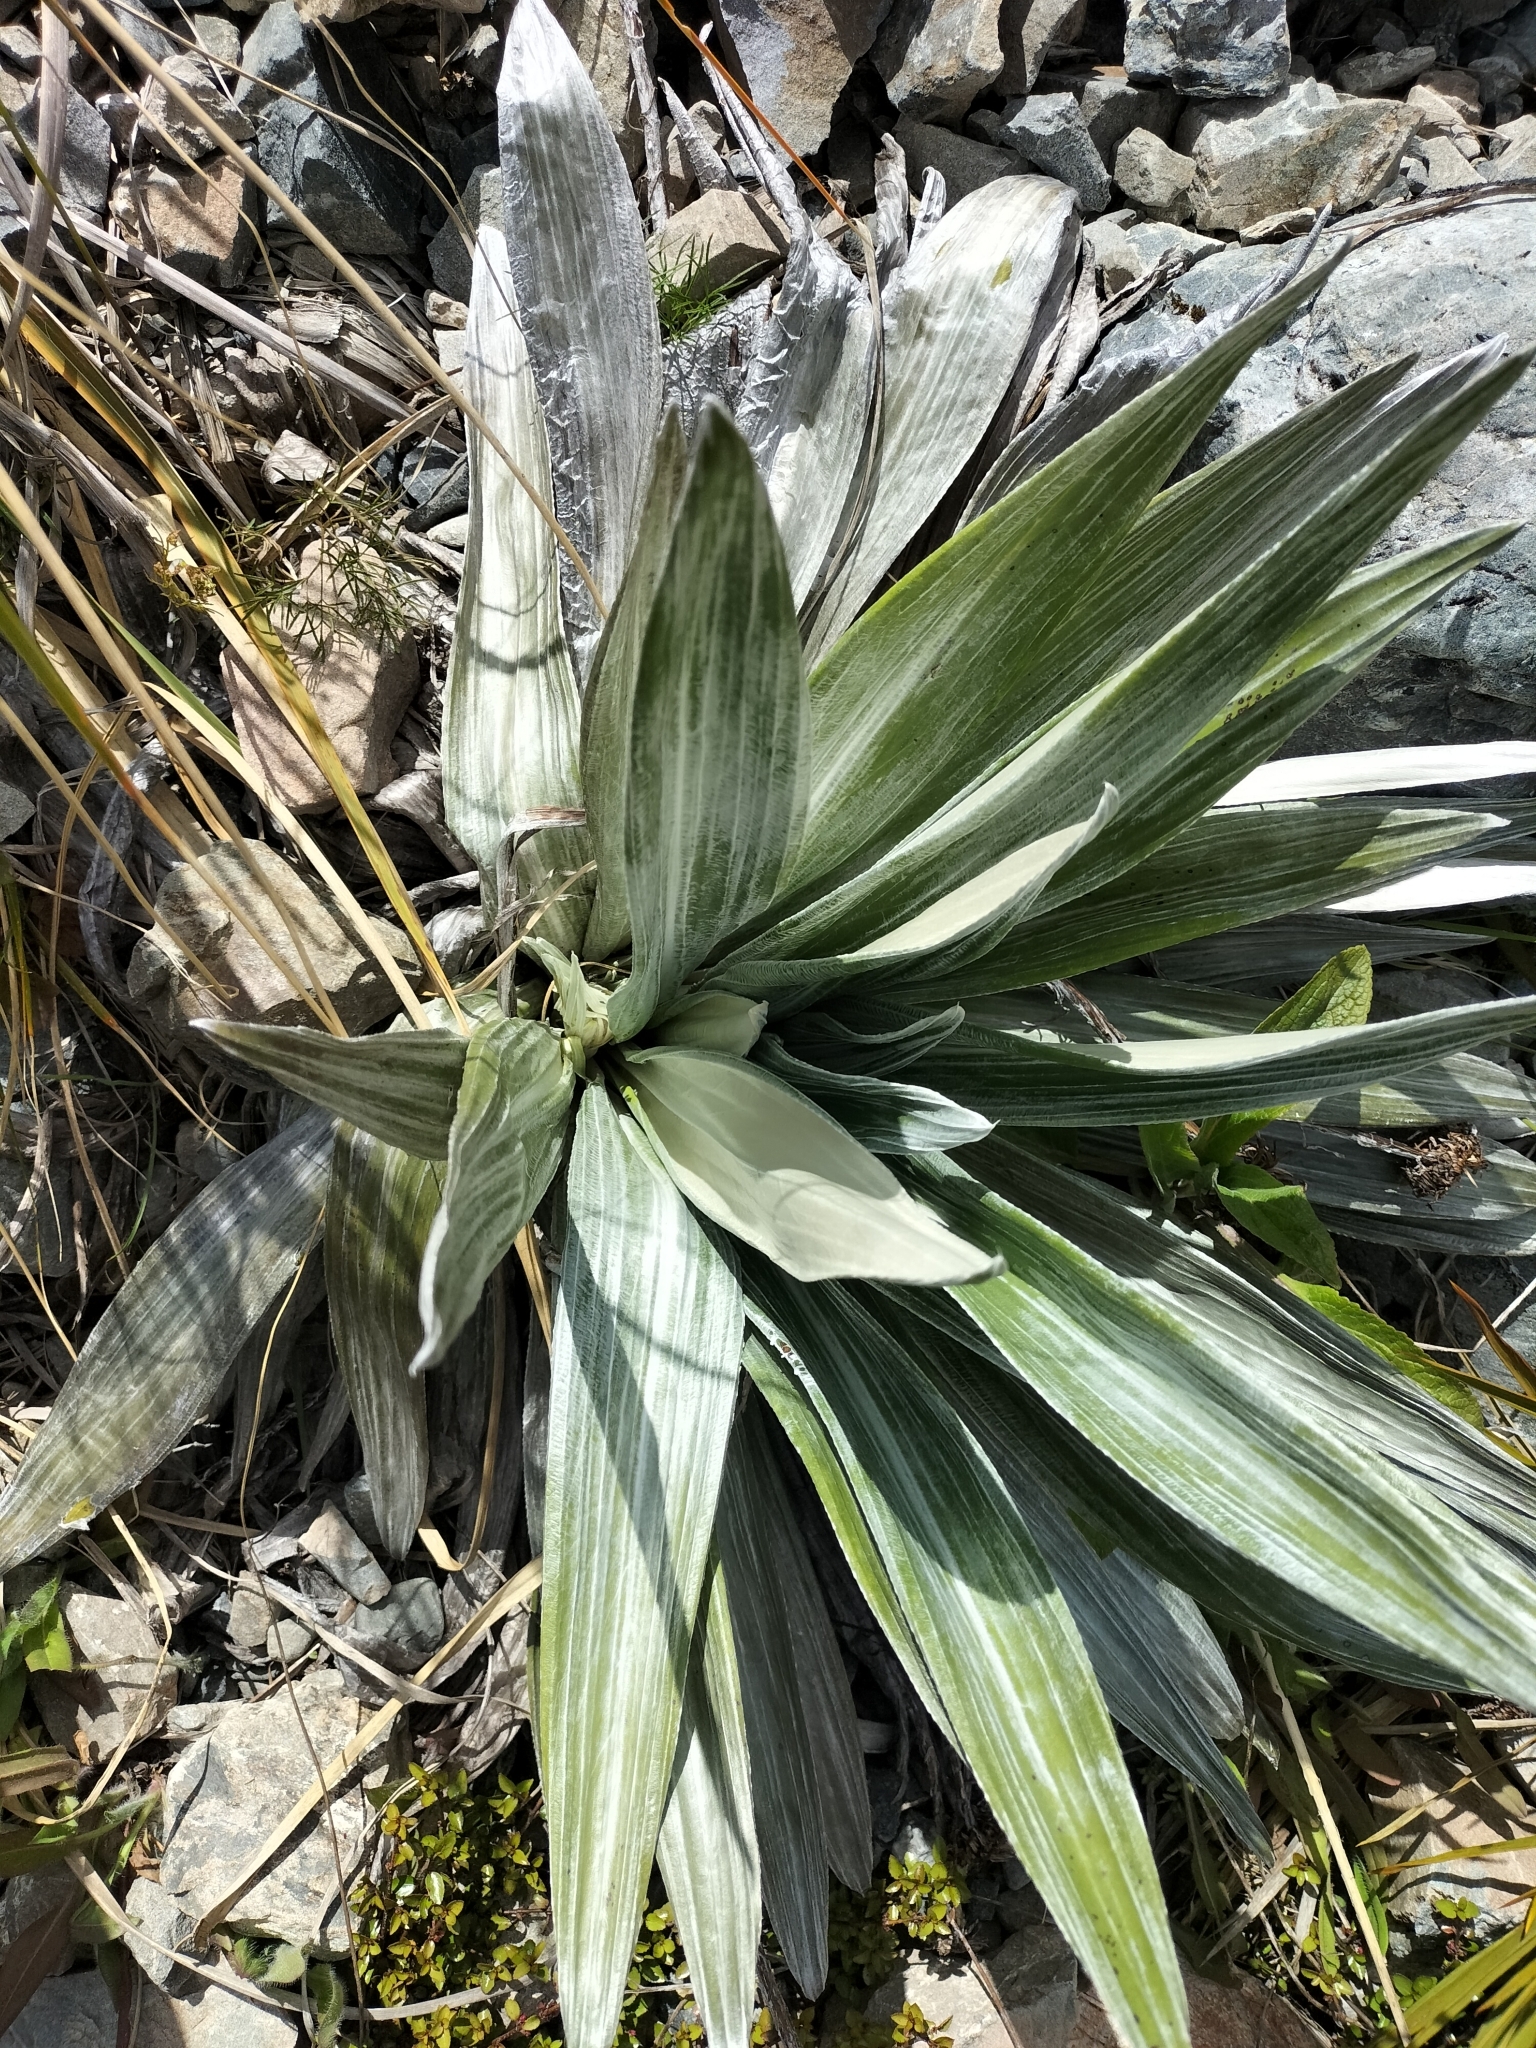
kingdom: Plantae
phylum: Tracheophyta
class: Magnoliopsida
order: Asterales
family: Asteraceae
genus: Celmisia
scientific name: Celmisia semicordata
